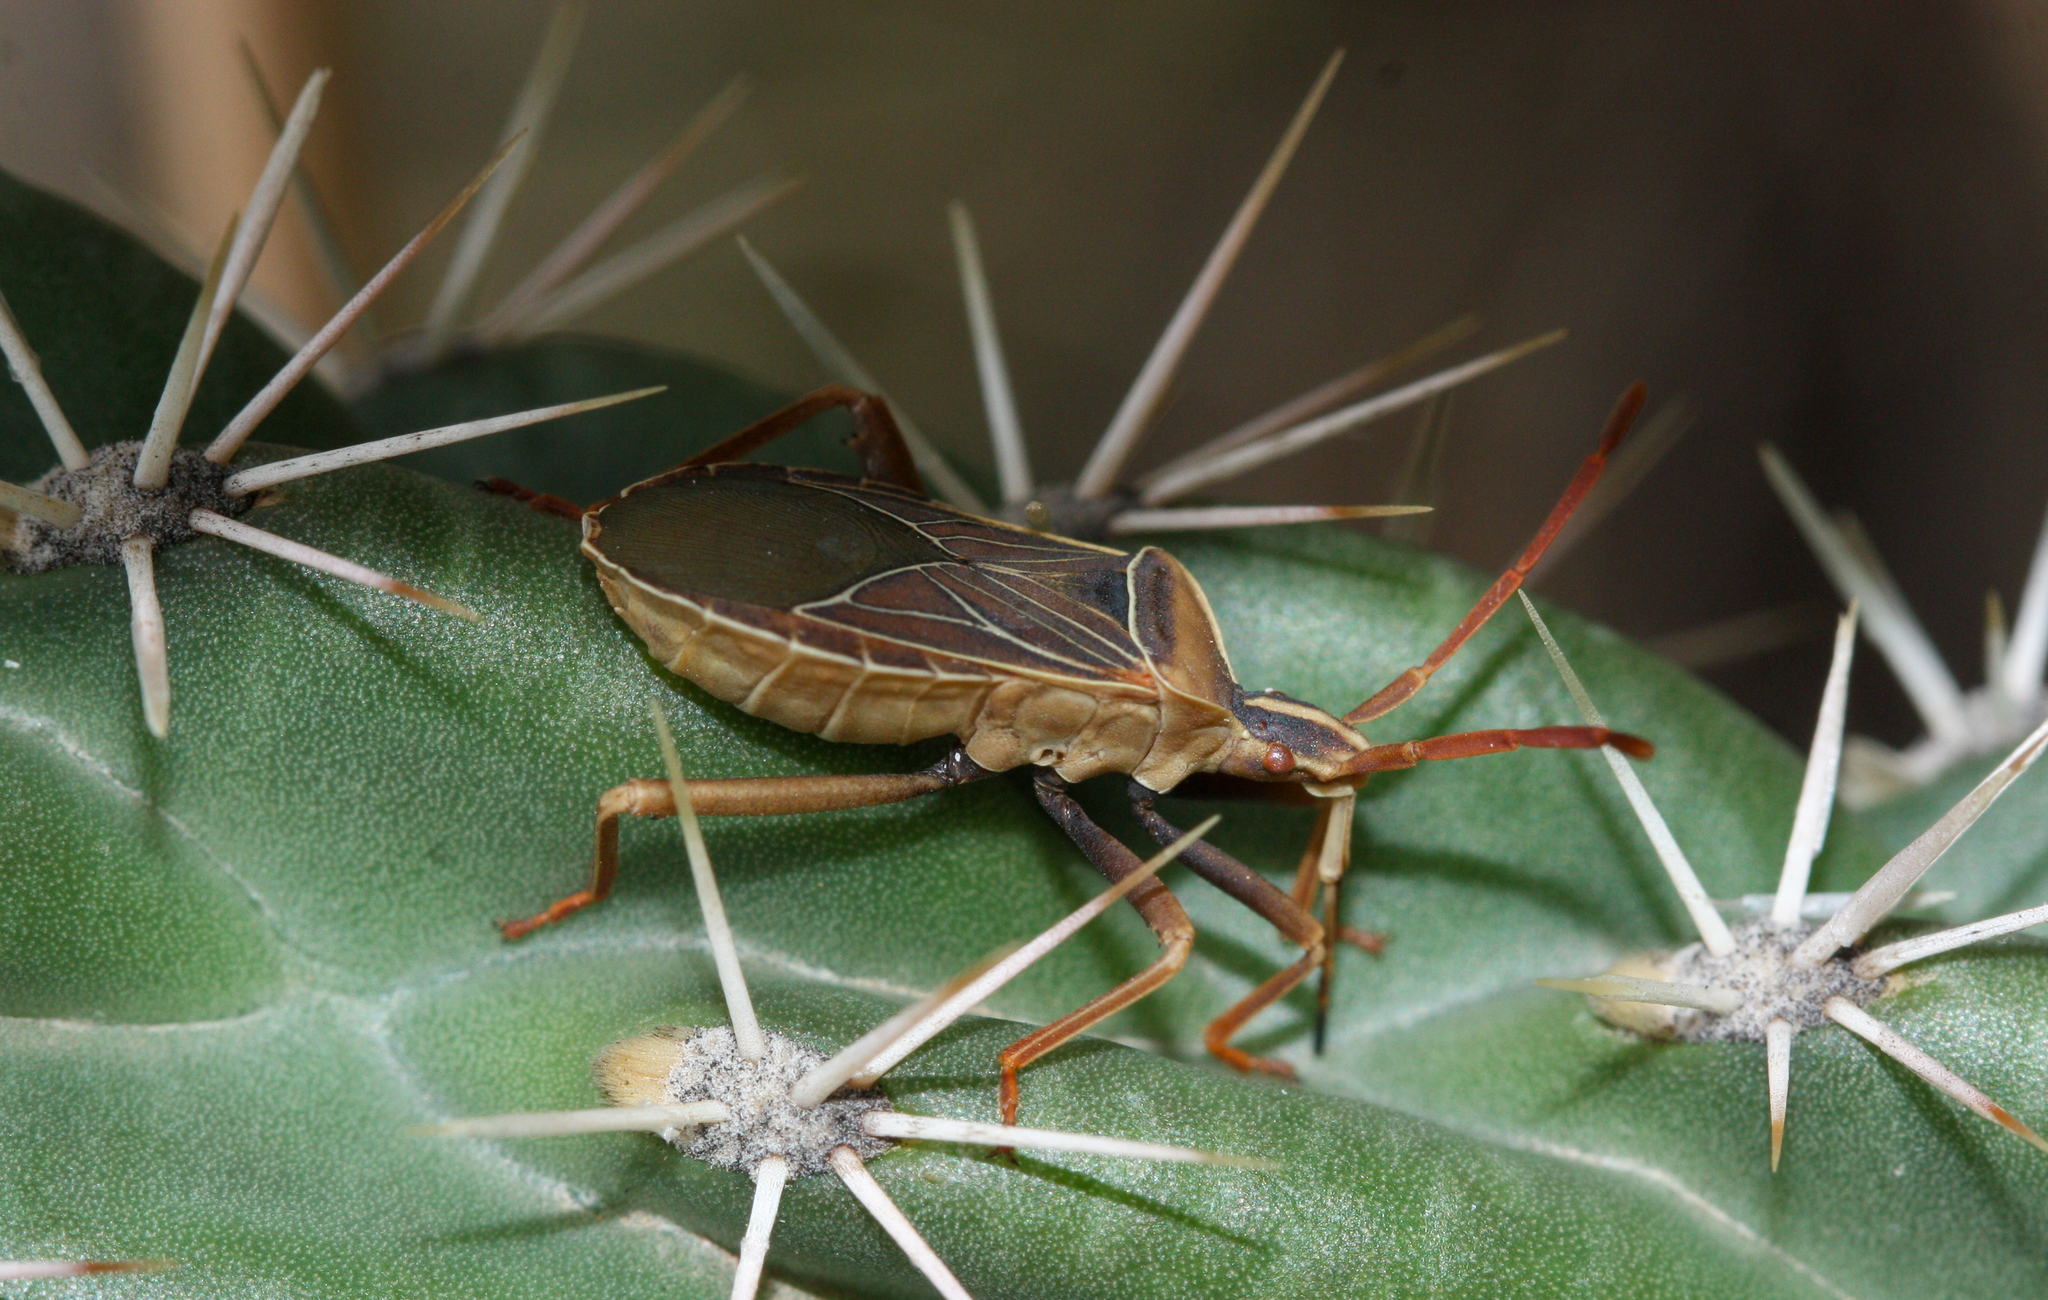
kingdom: Animalia
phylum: Arthropoda
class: Insecta
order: Hemiptera
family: Coreidae
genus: Chelinidea
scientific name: Chelinidea vittiger
